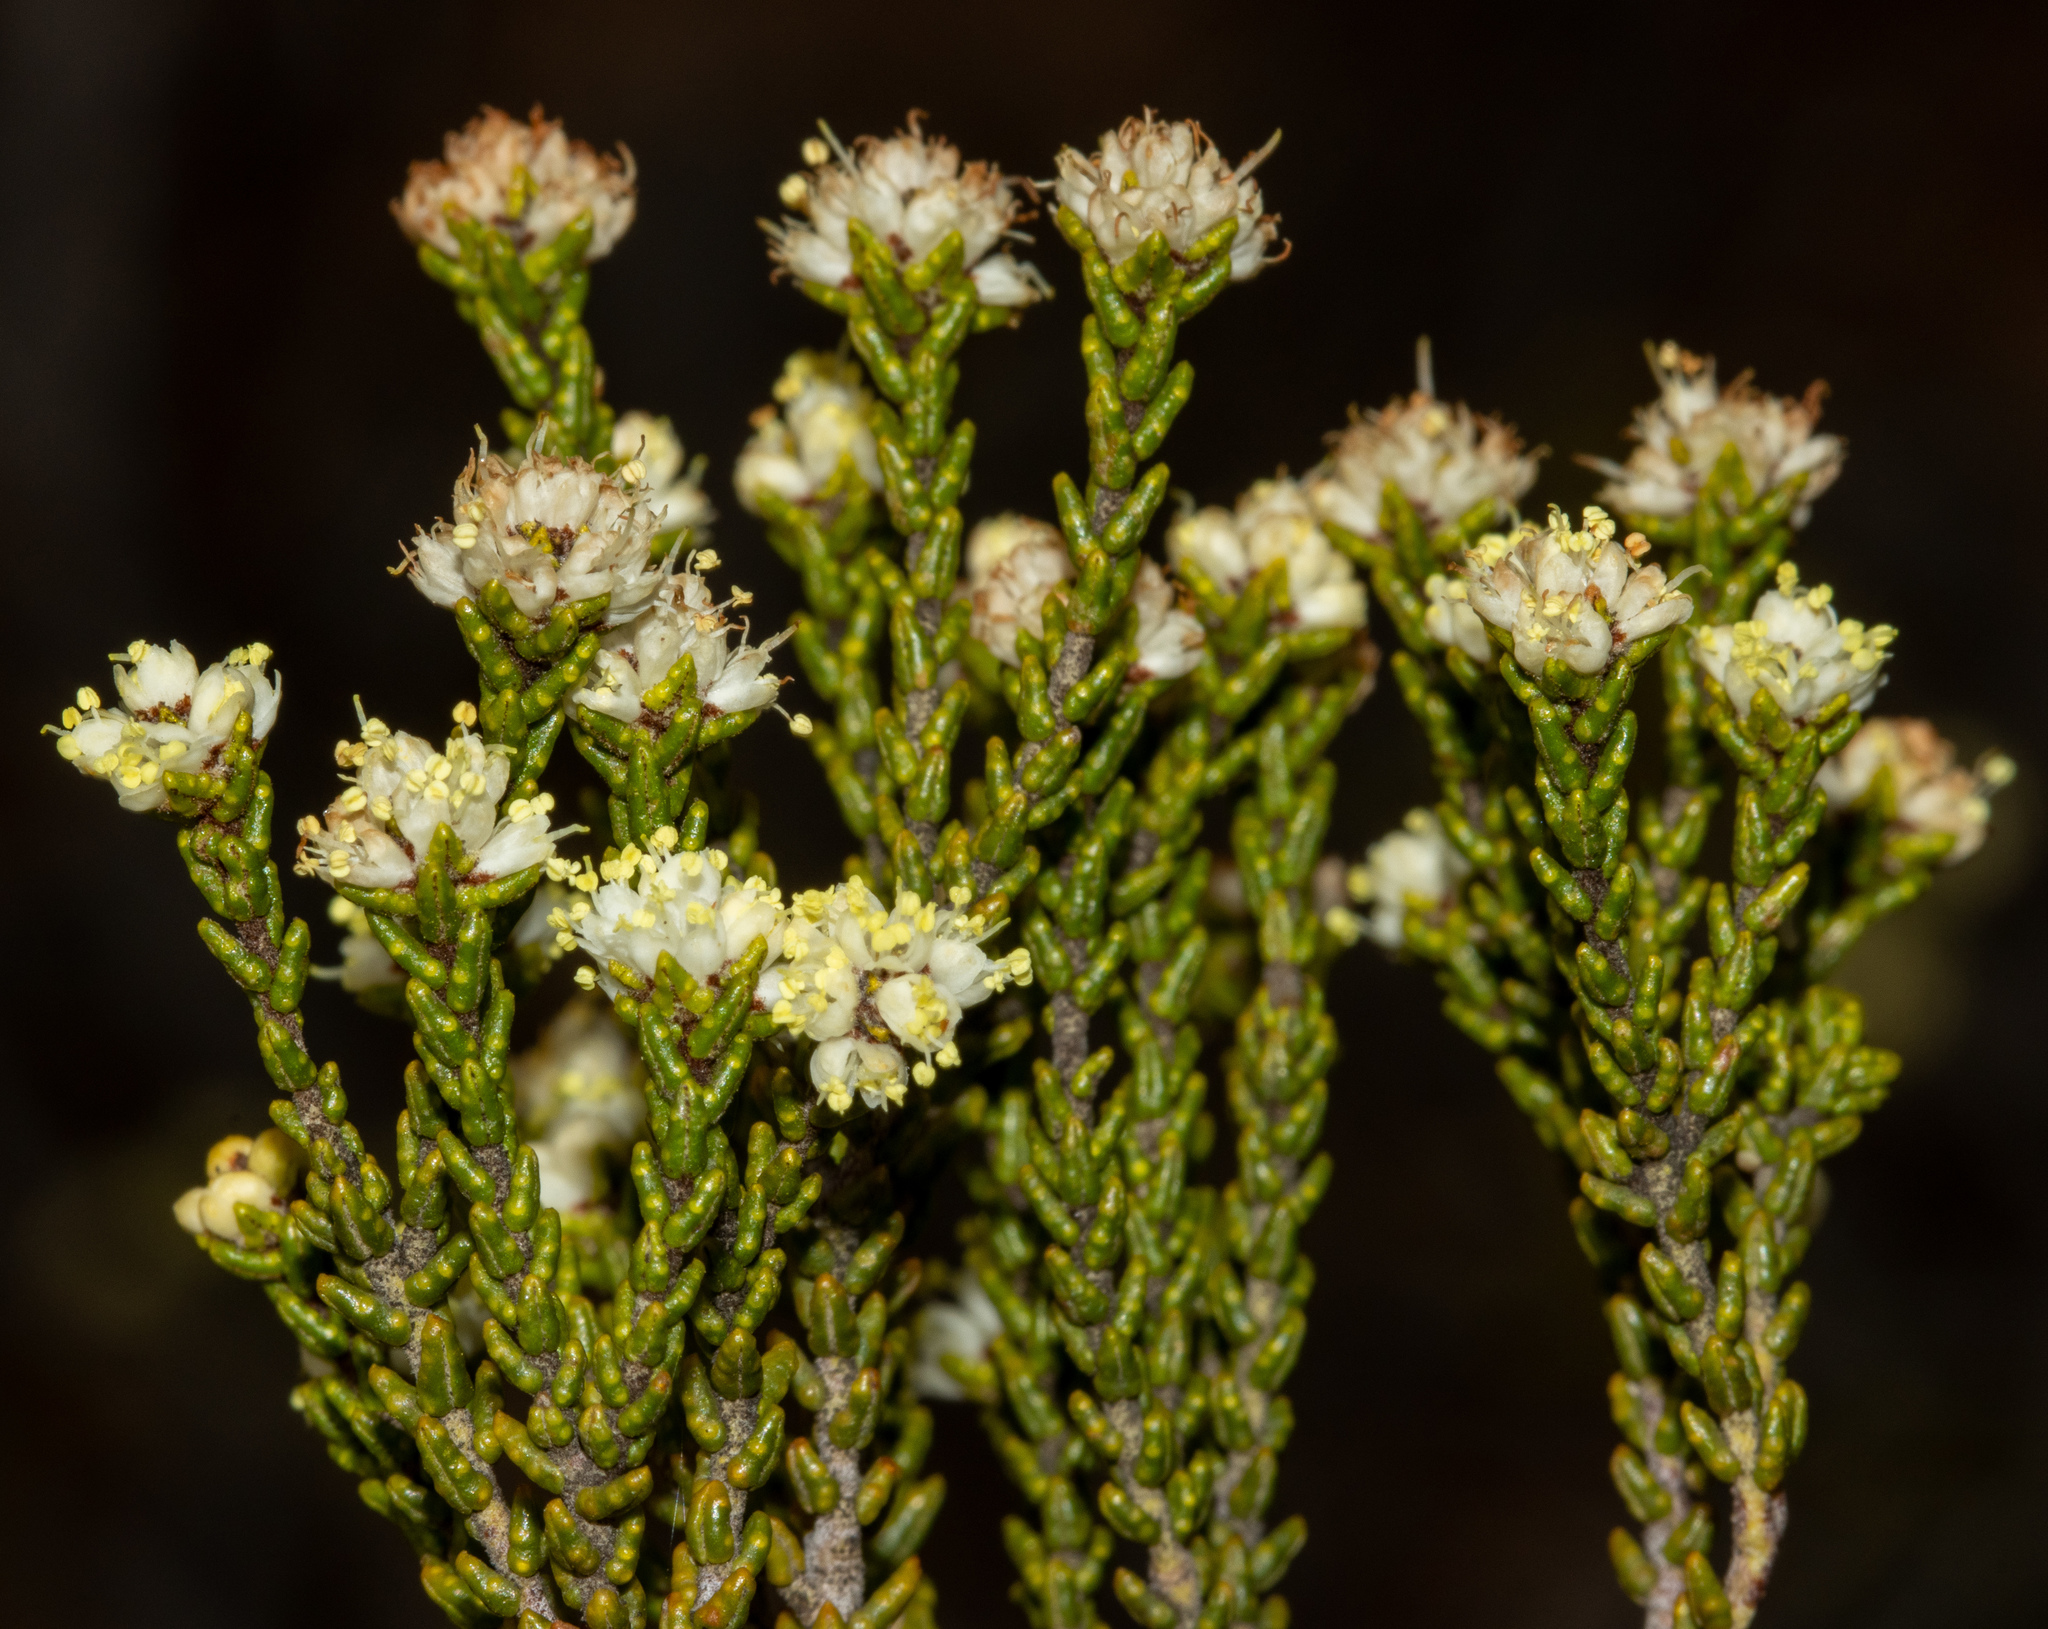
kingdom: Plantae
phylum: Tracheophyta
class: Magnoliopsida
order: Sapindales
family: Rutaceae
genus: Microcybe
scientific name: Microcybe multiflora
